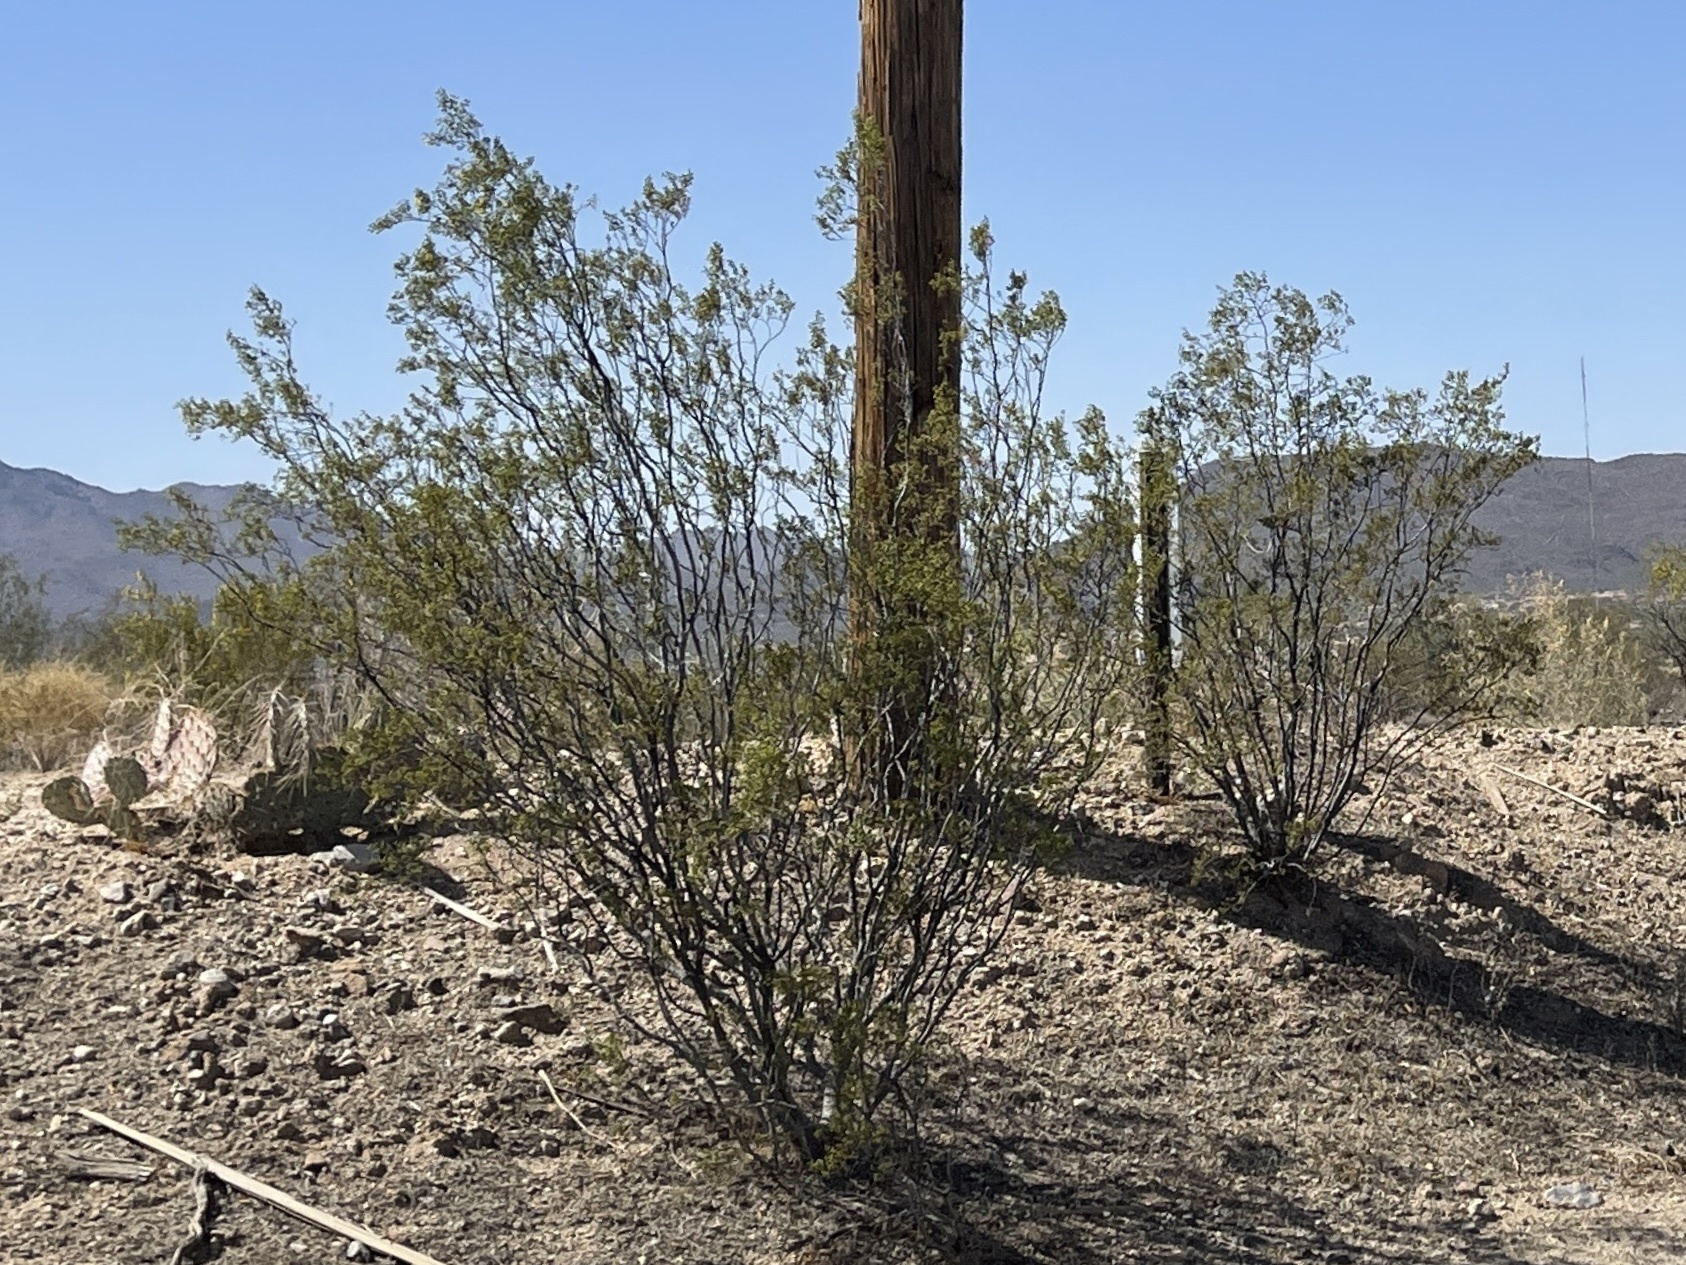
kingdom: Plantae
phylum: Tracheophyta
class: Magnoliopsida
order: Zygophyllales
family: Zygophyllaceae
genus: Larrea
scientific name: Larrea tridentata
